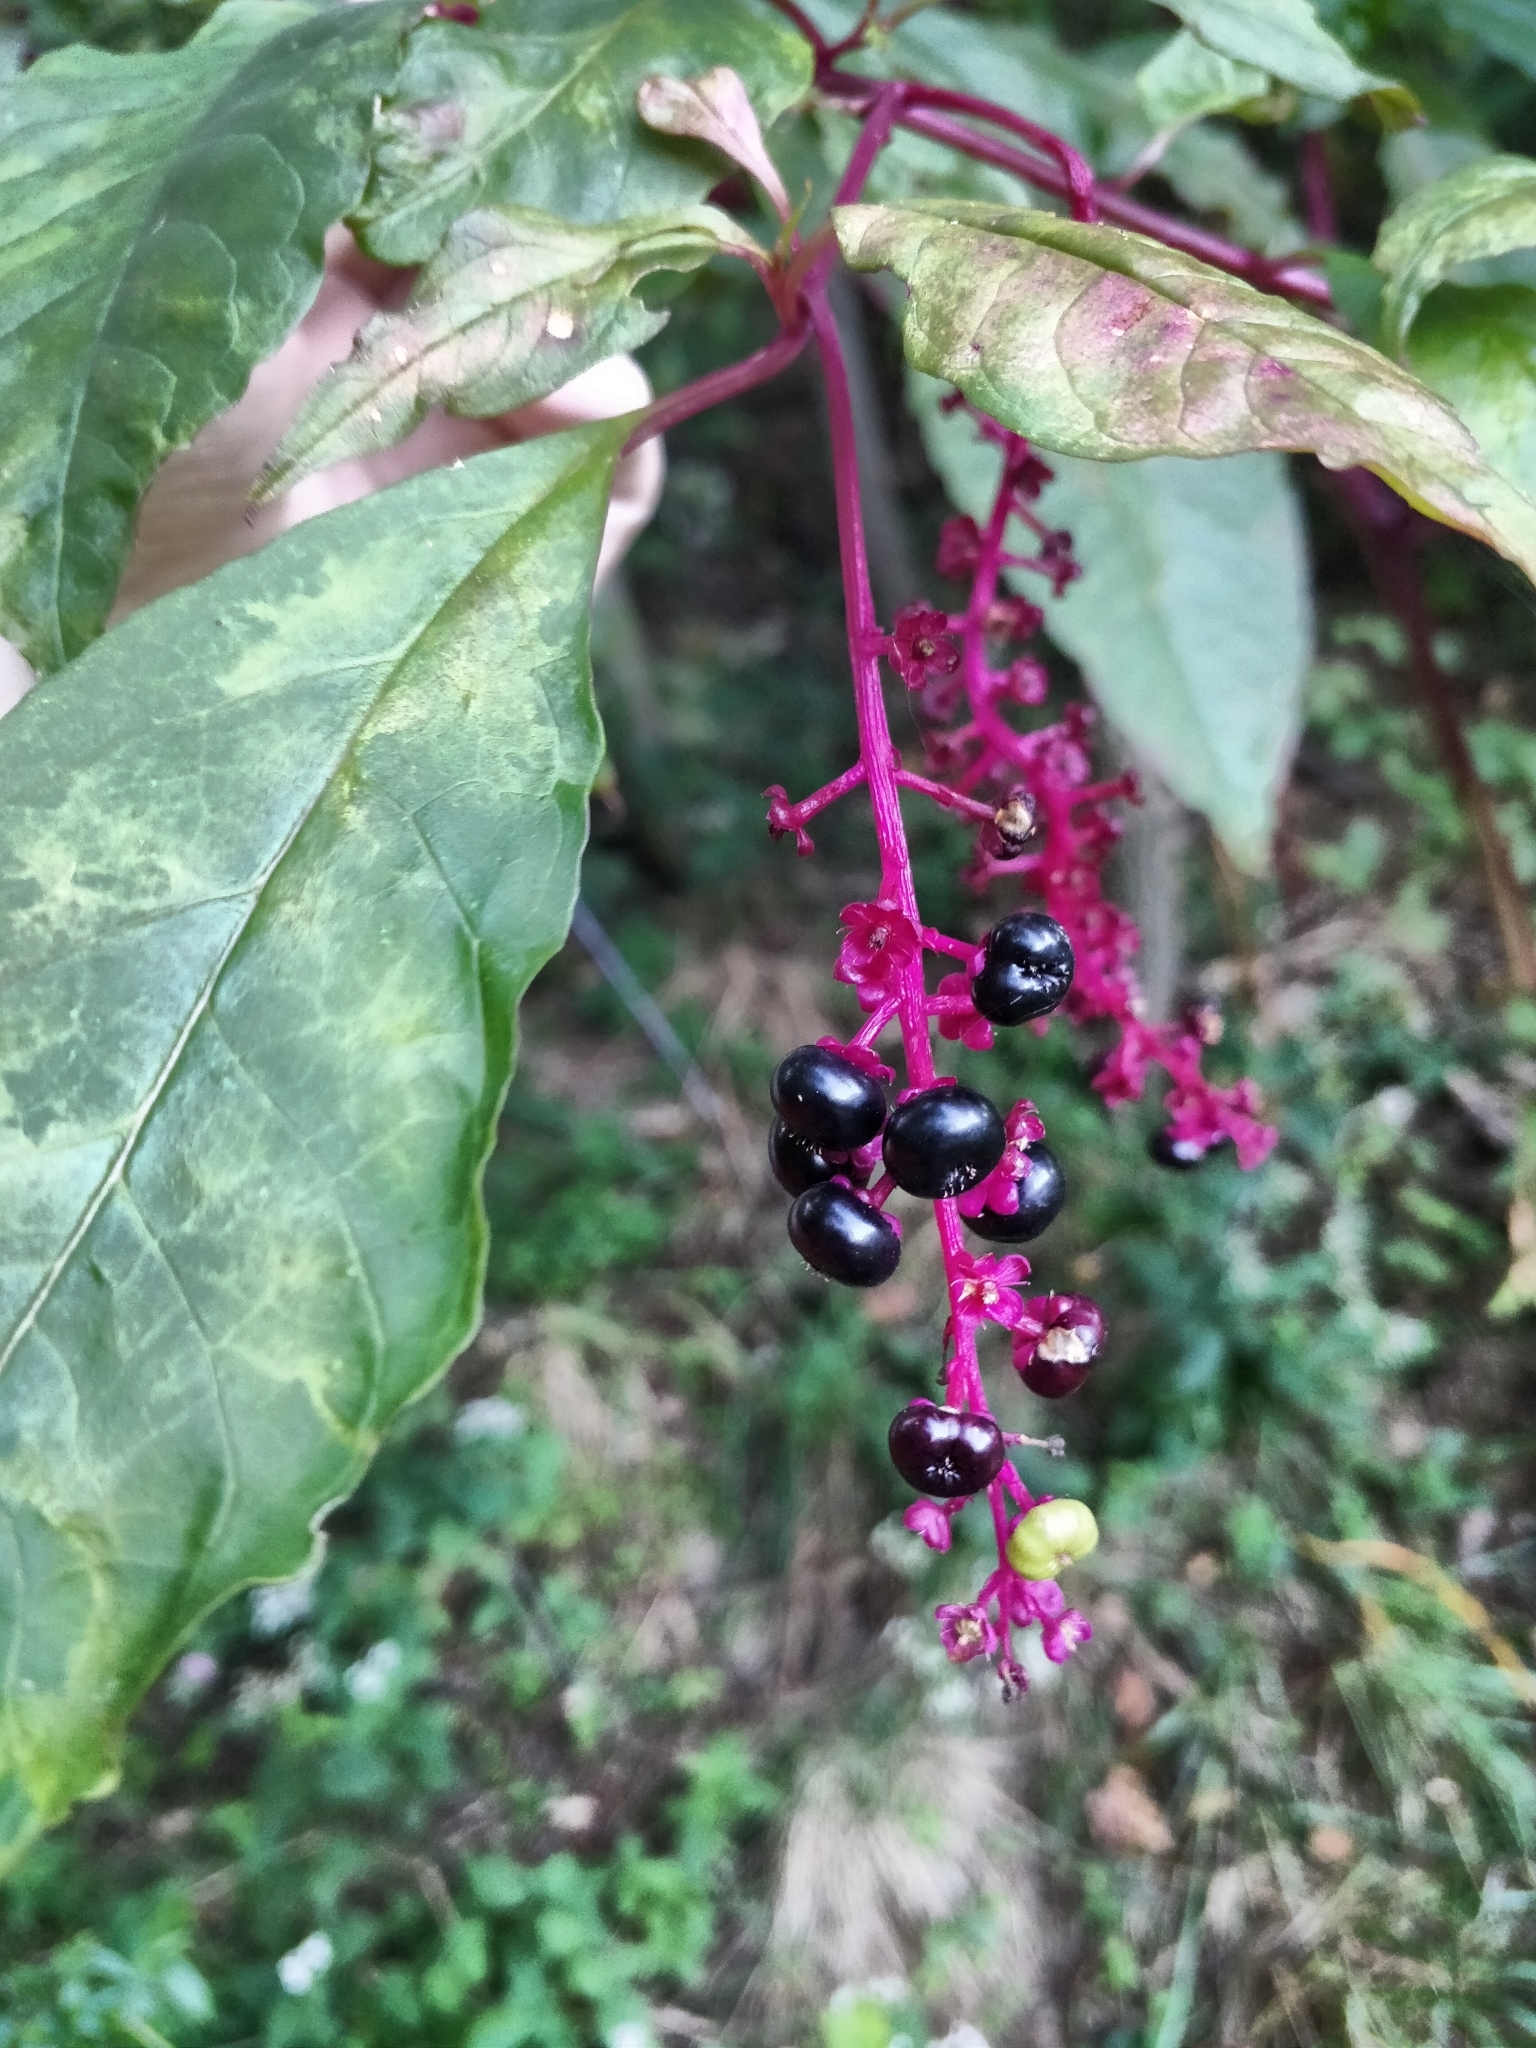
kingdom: Plantae
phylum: Tracheophyta
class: Magnoliopsida
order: Caryophyllales
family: Phytolaccaceae
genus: Phytolacca
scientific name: Phytolacca americana
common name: American pokeweed
